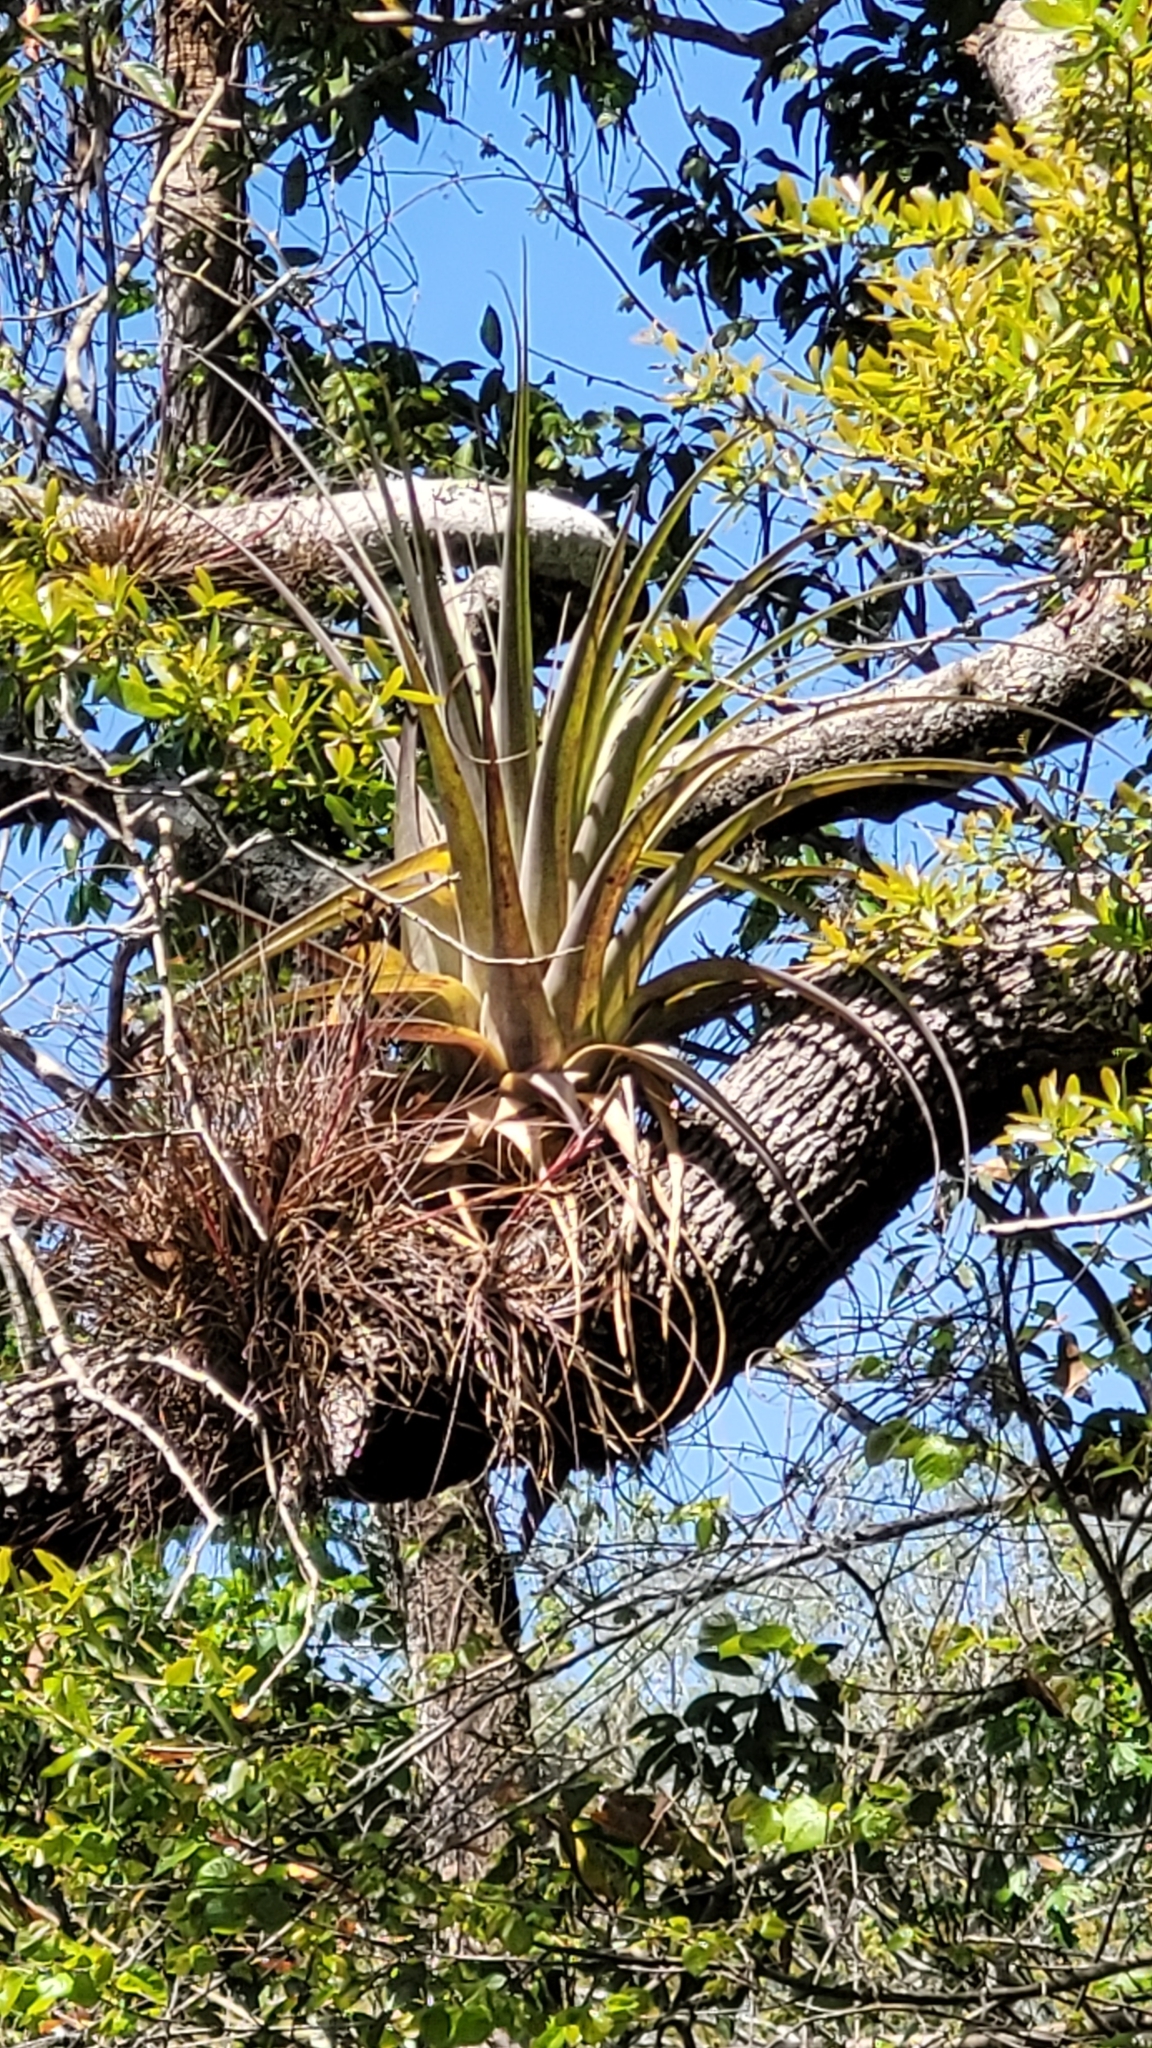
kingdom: Plantae
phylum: Tracheophyta
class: Liliopsida
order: Poales
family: Bromeliaceae
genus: Tillandsia
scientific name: Tillandsia utriculata
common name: Wild pine
